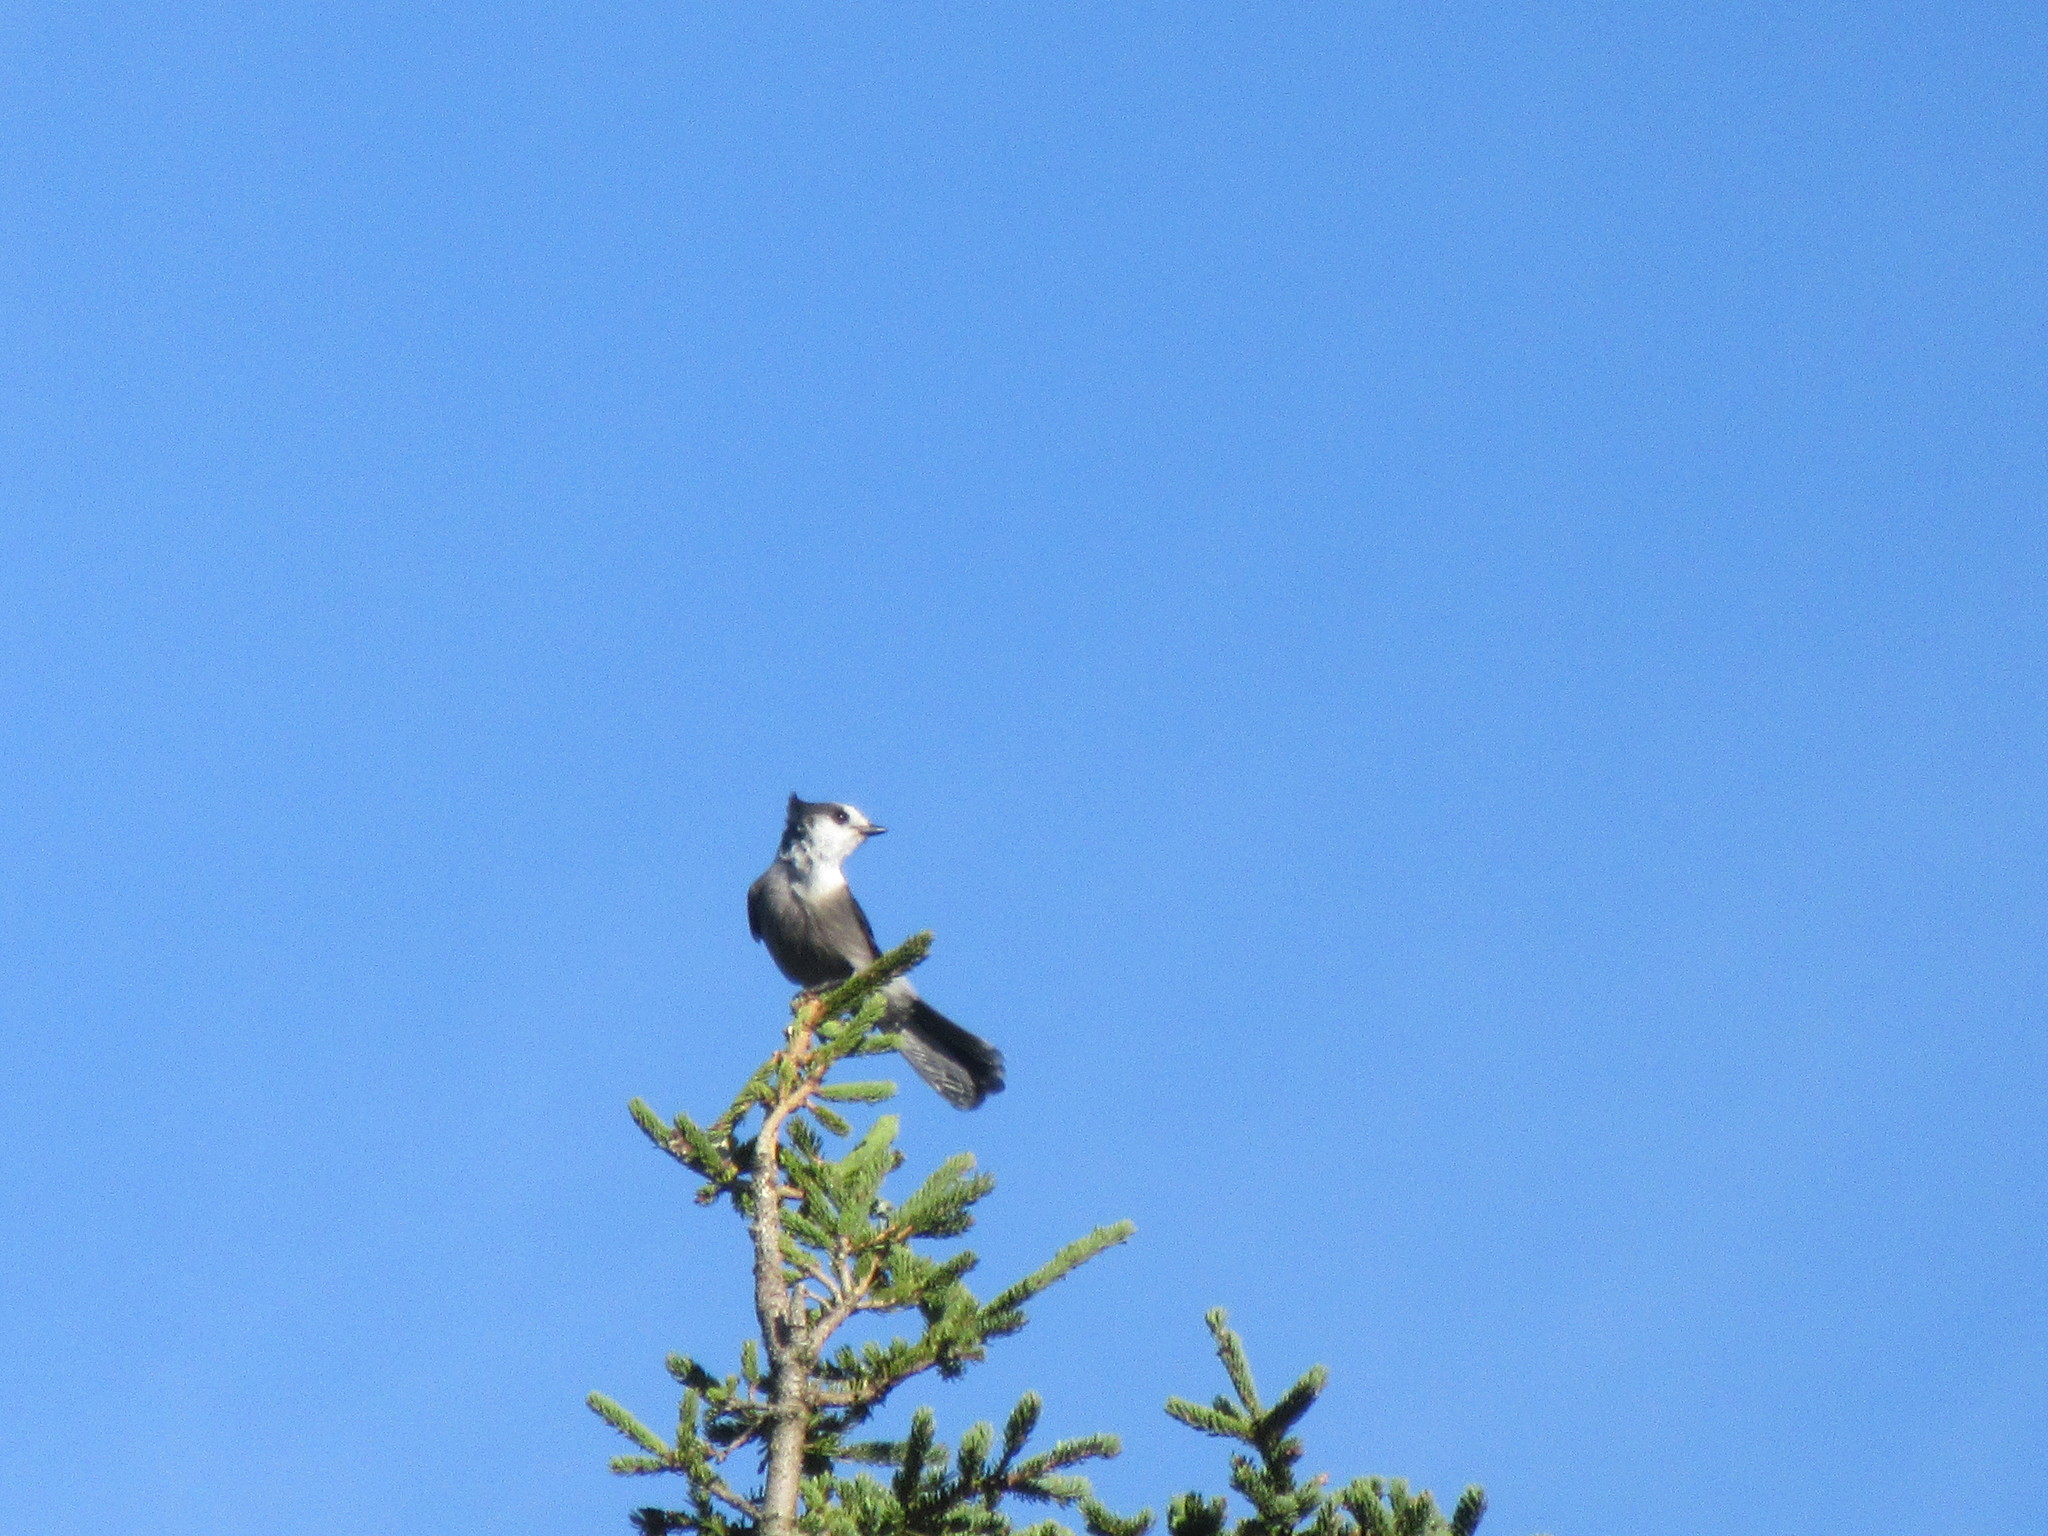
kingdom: Animalia
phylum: Chordata
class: Aves
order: Passeriformes
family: Corvidae
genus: Perisoreus
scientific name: Perisoreus canadensis
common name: Gray jay
